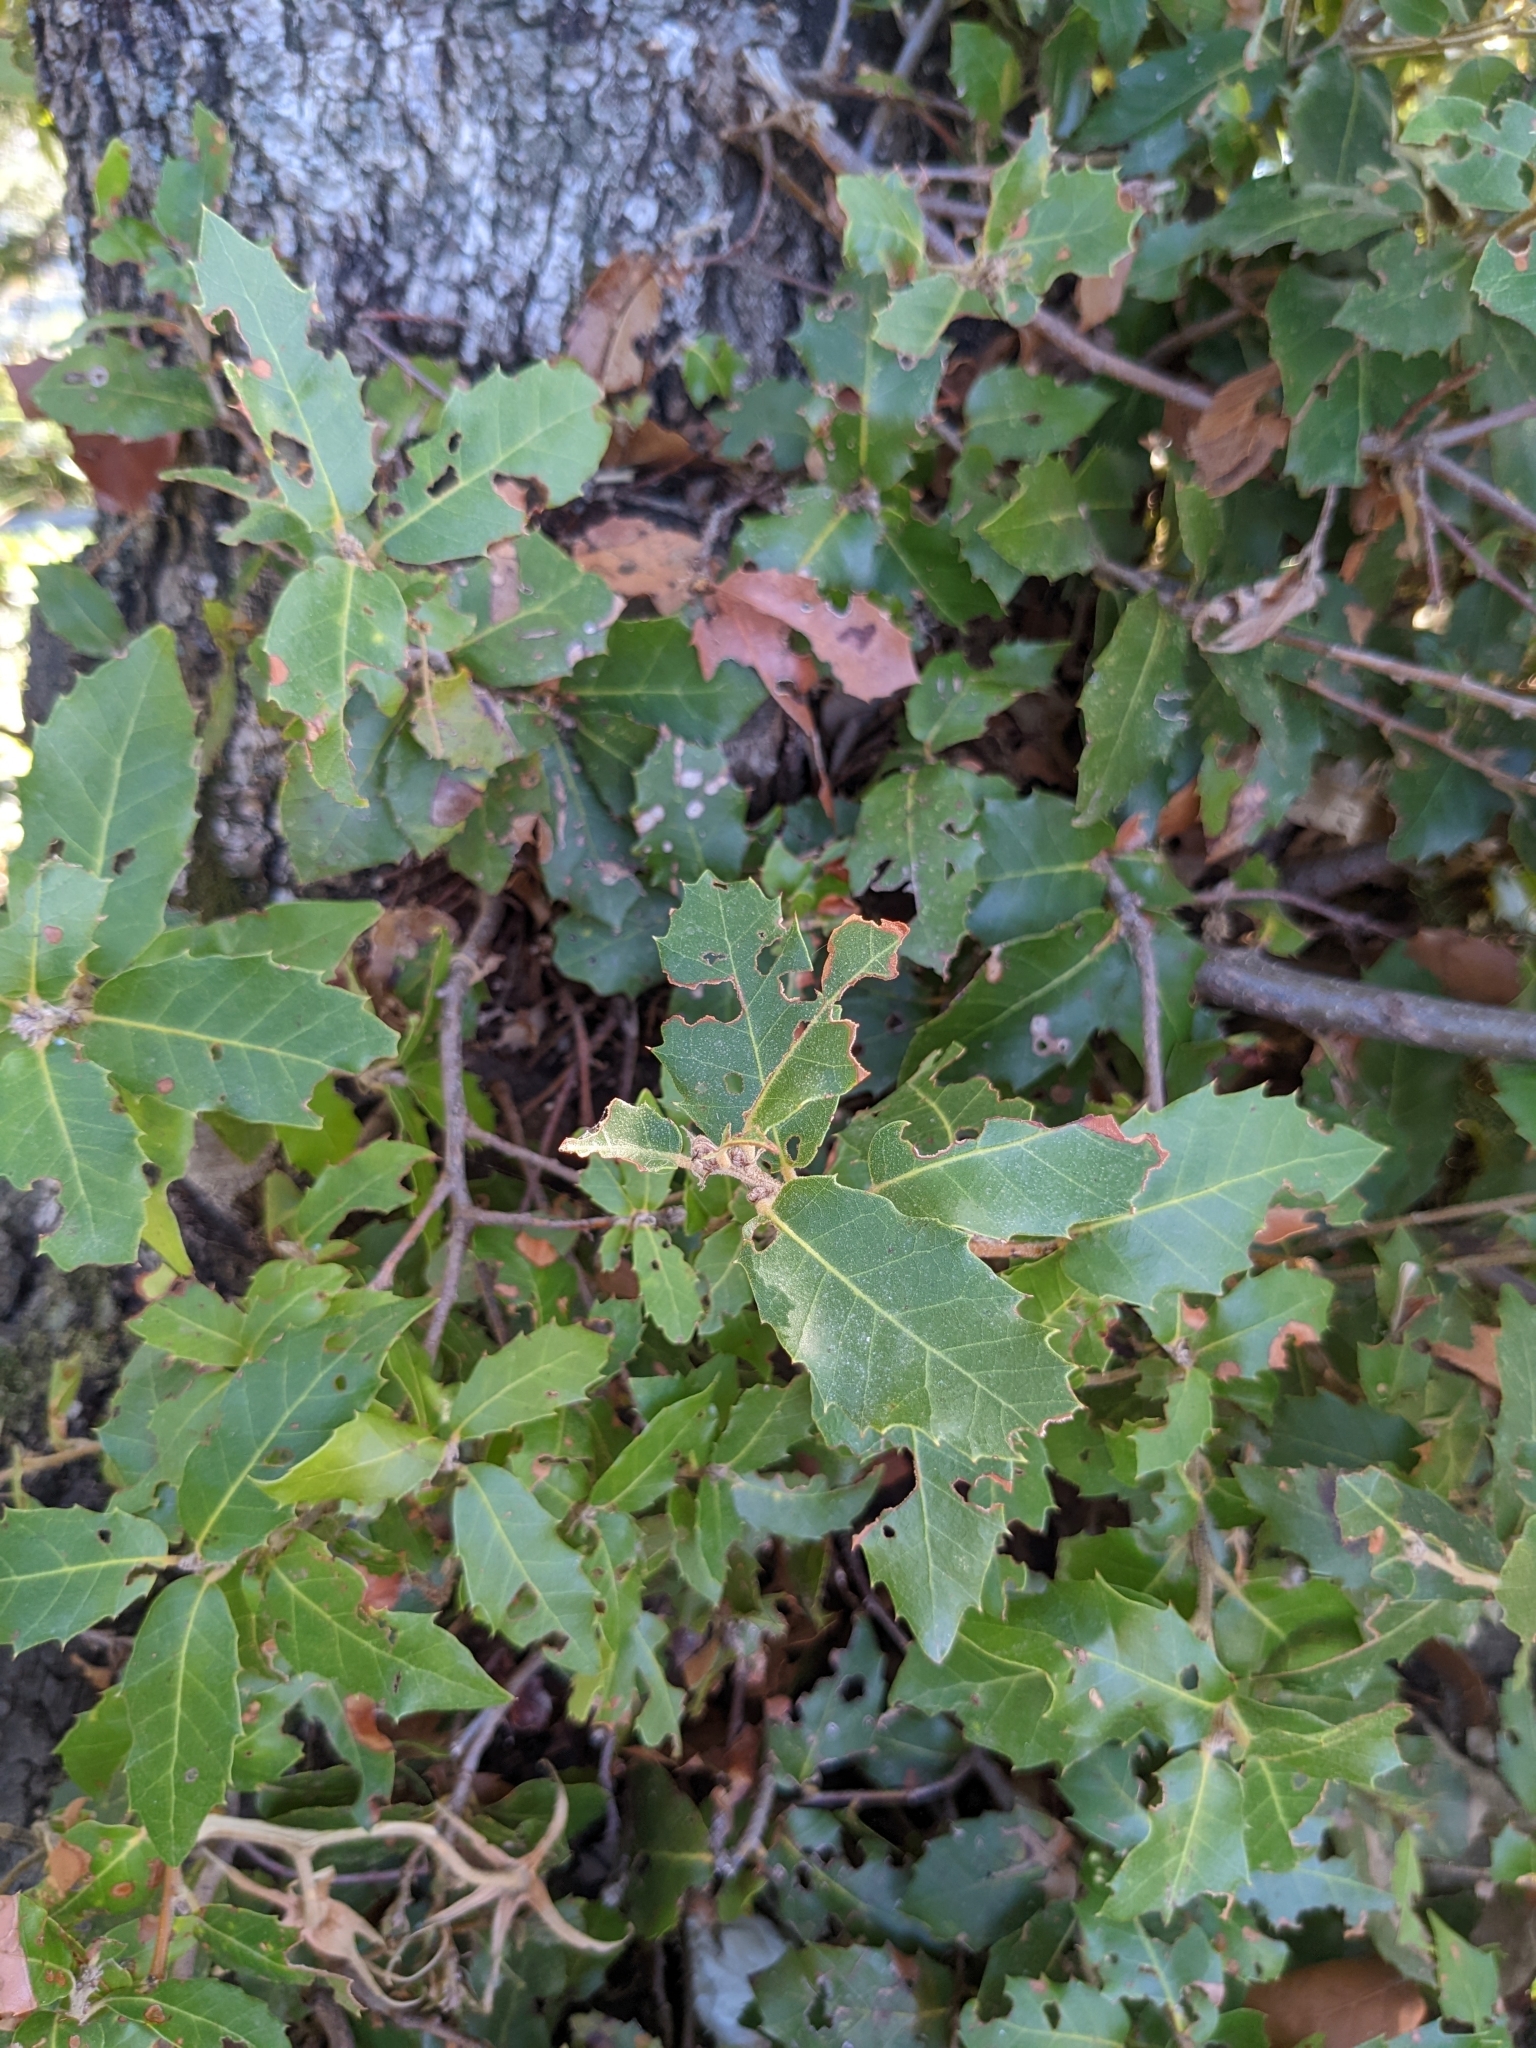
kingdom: Plantae
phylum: Tracheophyta
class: Magnoliopsida
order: Fagales
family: Fagaceae
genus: Quercus
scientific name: Quercus ilex
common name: Evergreen oak
